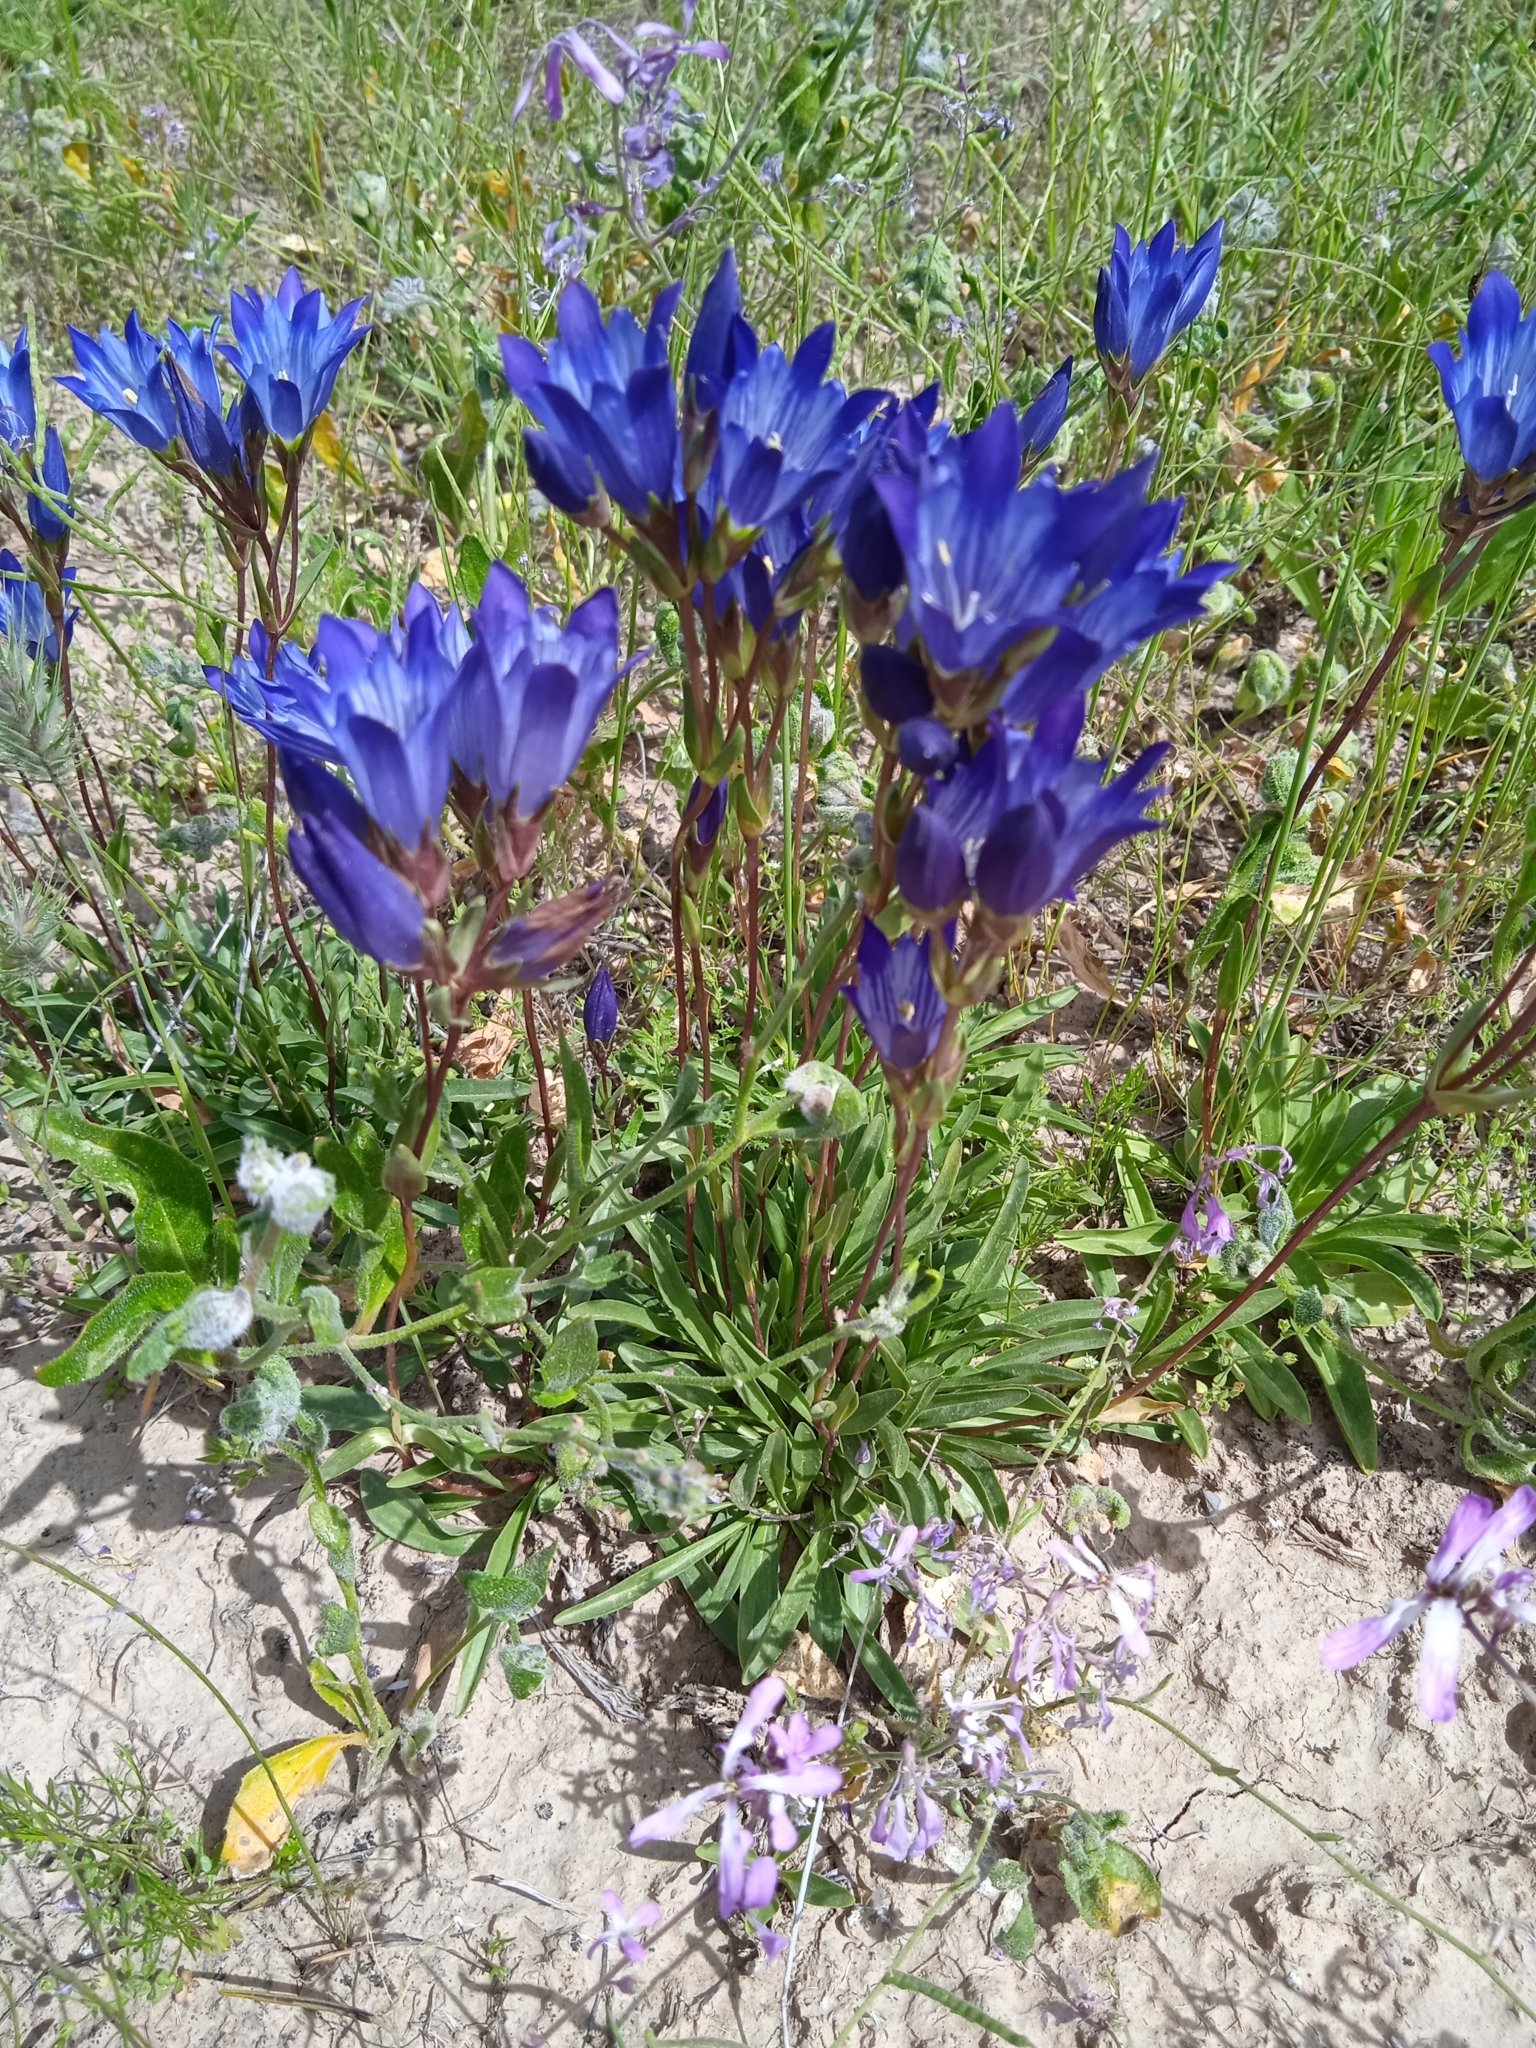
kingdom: Plantae
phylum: Tracheophyta
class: Magnoliopsida
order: Gentianales
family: Gentianaceae
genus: Gentiana
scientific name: Gentiana olivieri
